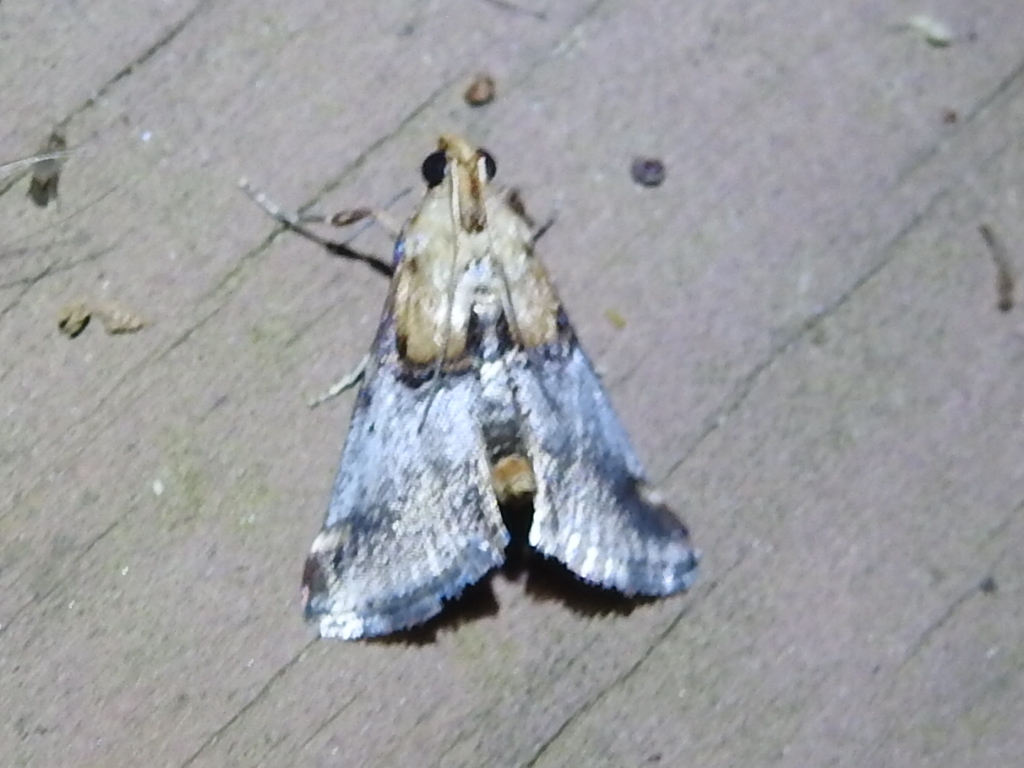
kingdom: Animalia
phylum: Arthropoda
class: Insecta
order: Lepidoptera
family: Pyralidae
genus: Cacozelia
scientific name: Cacozelia basiochrealis
